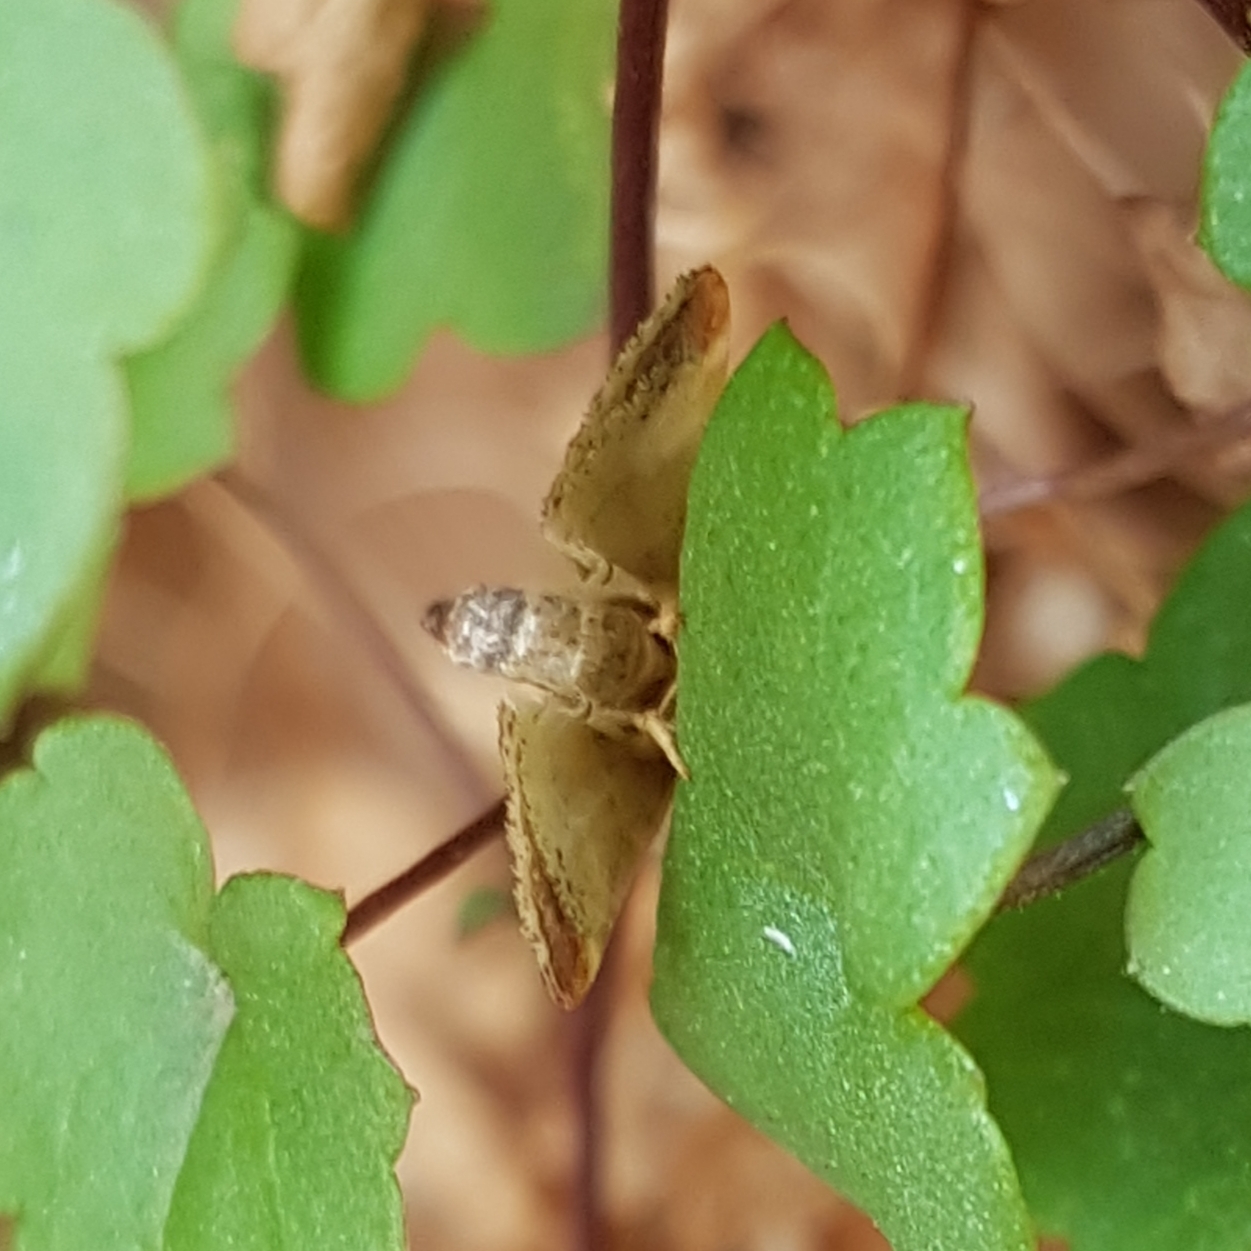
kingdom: Animalia
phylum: Arthropoda
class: Insecta
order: Lepidoptera
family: Pyralidae
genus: Pyralis
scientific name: Pyralis farinalis
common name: Meal moth
